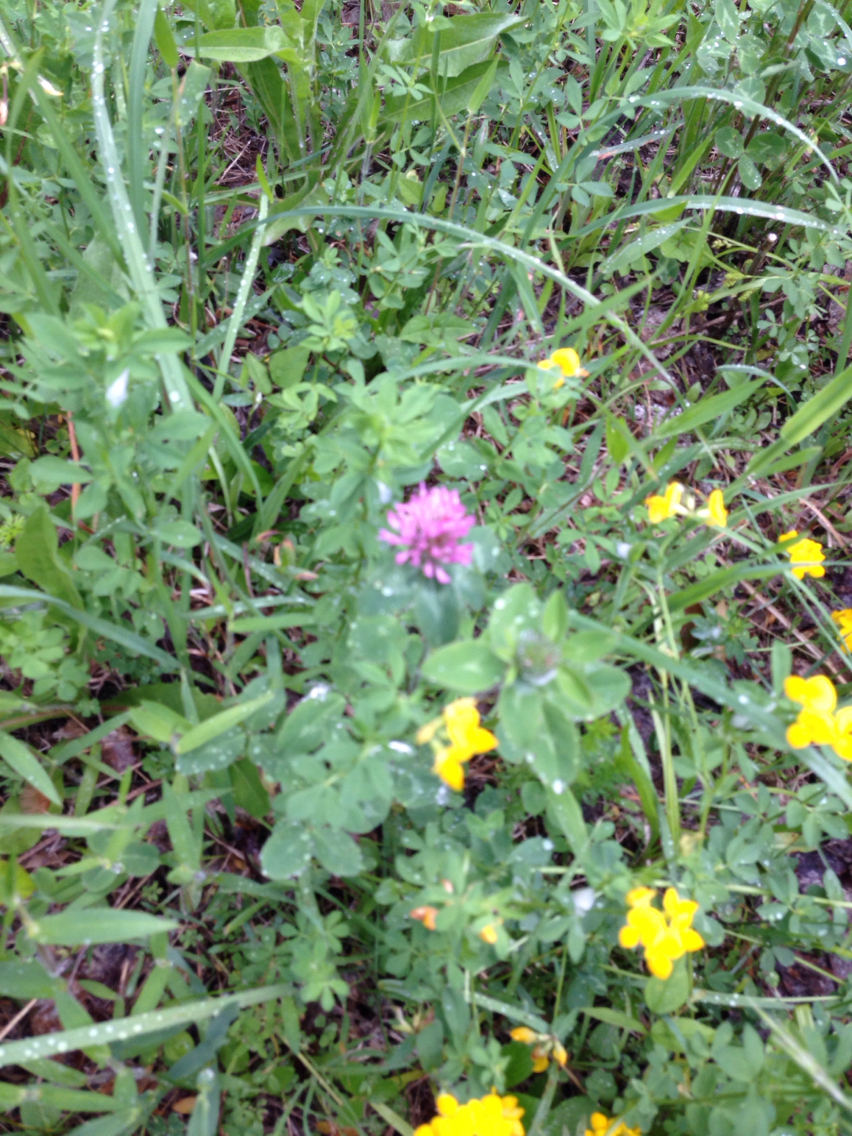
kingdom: Plantae
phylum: Tracheophyta
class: Magnoliopsida
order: Fabales
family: Fabaceae
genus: Trifolium
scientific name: Trifolium pratense
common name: Red clover
